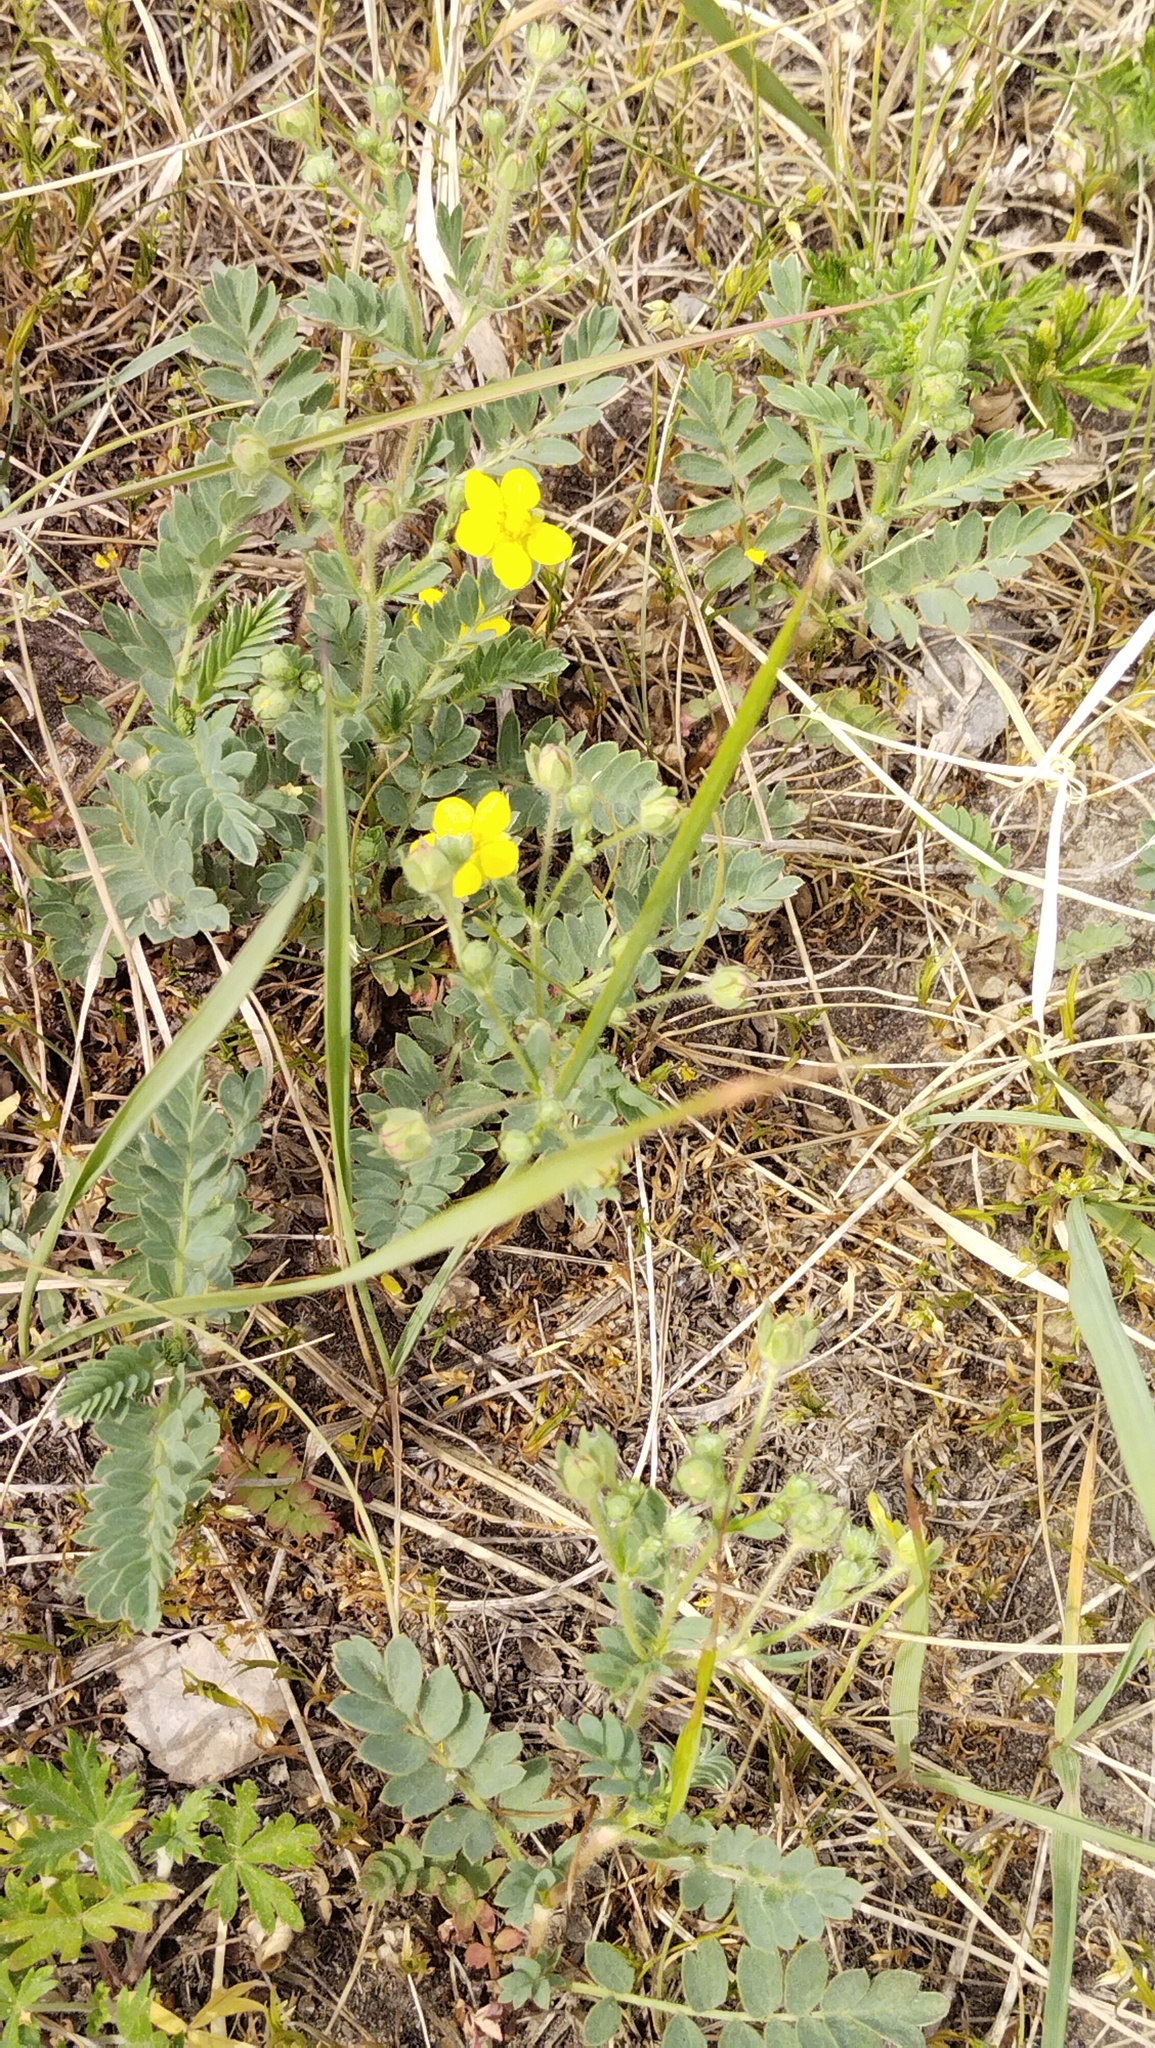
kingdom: Plantae
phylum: Tracheophyta
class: Magnoliopsida
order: Rosales
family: Rosaceae
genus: Sibbaldianthe
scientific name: Sibbaldianthe bifurca
